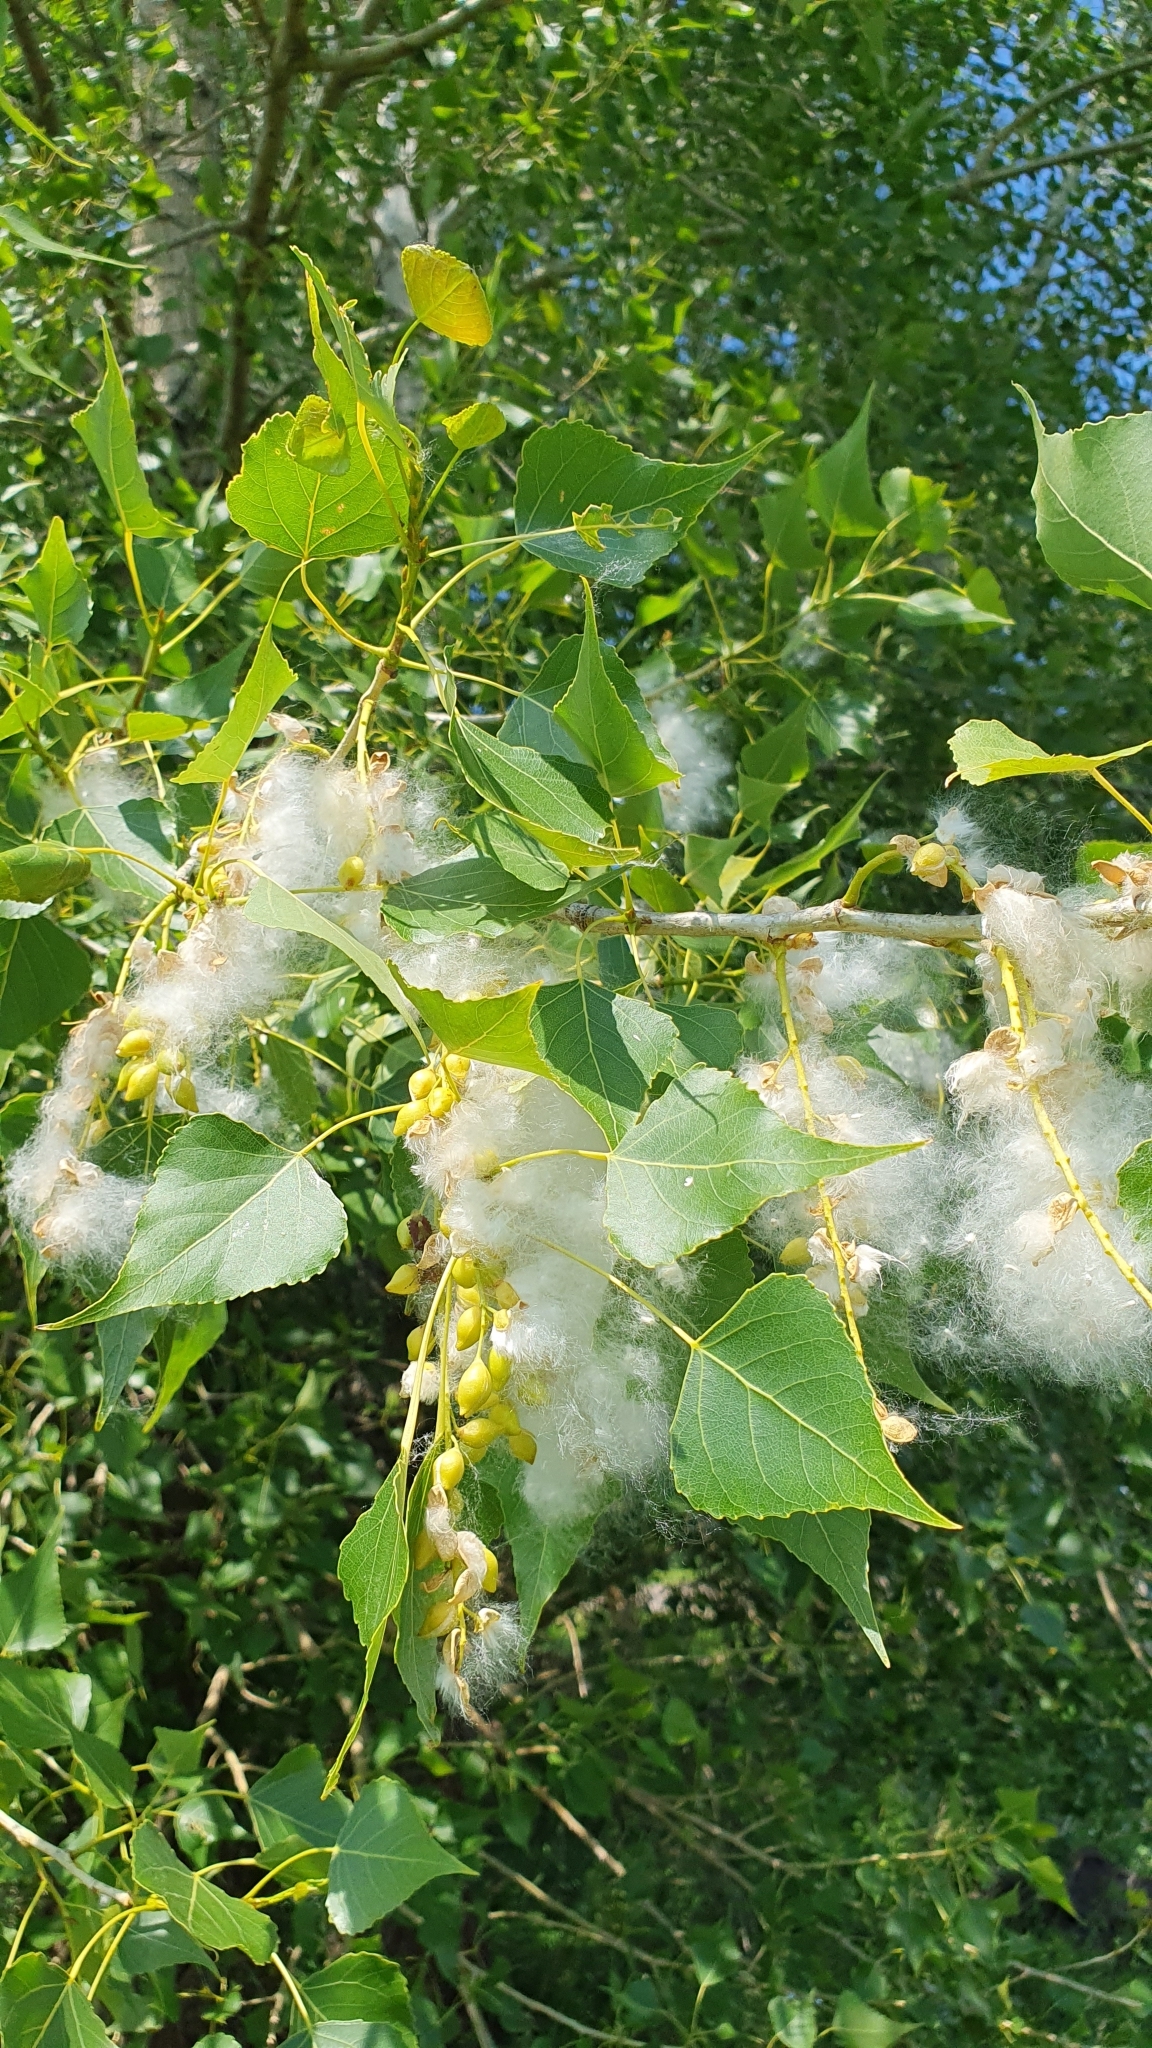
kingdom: Plantae
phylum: Tracheophyta
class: Magnoliopsida
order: Malpighiales
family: Salicaceae
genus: Populus
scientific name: Populus nigra
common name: Black poplar
